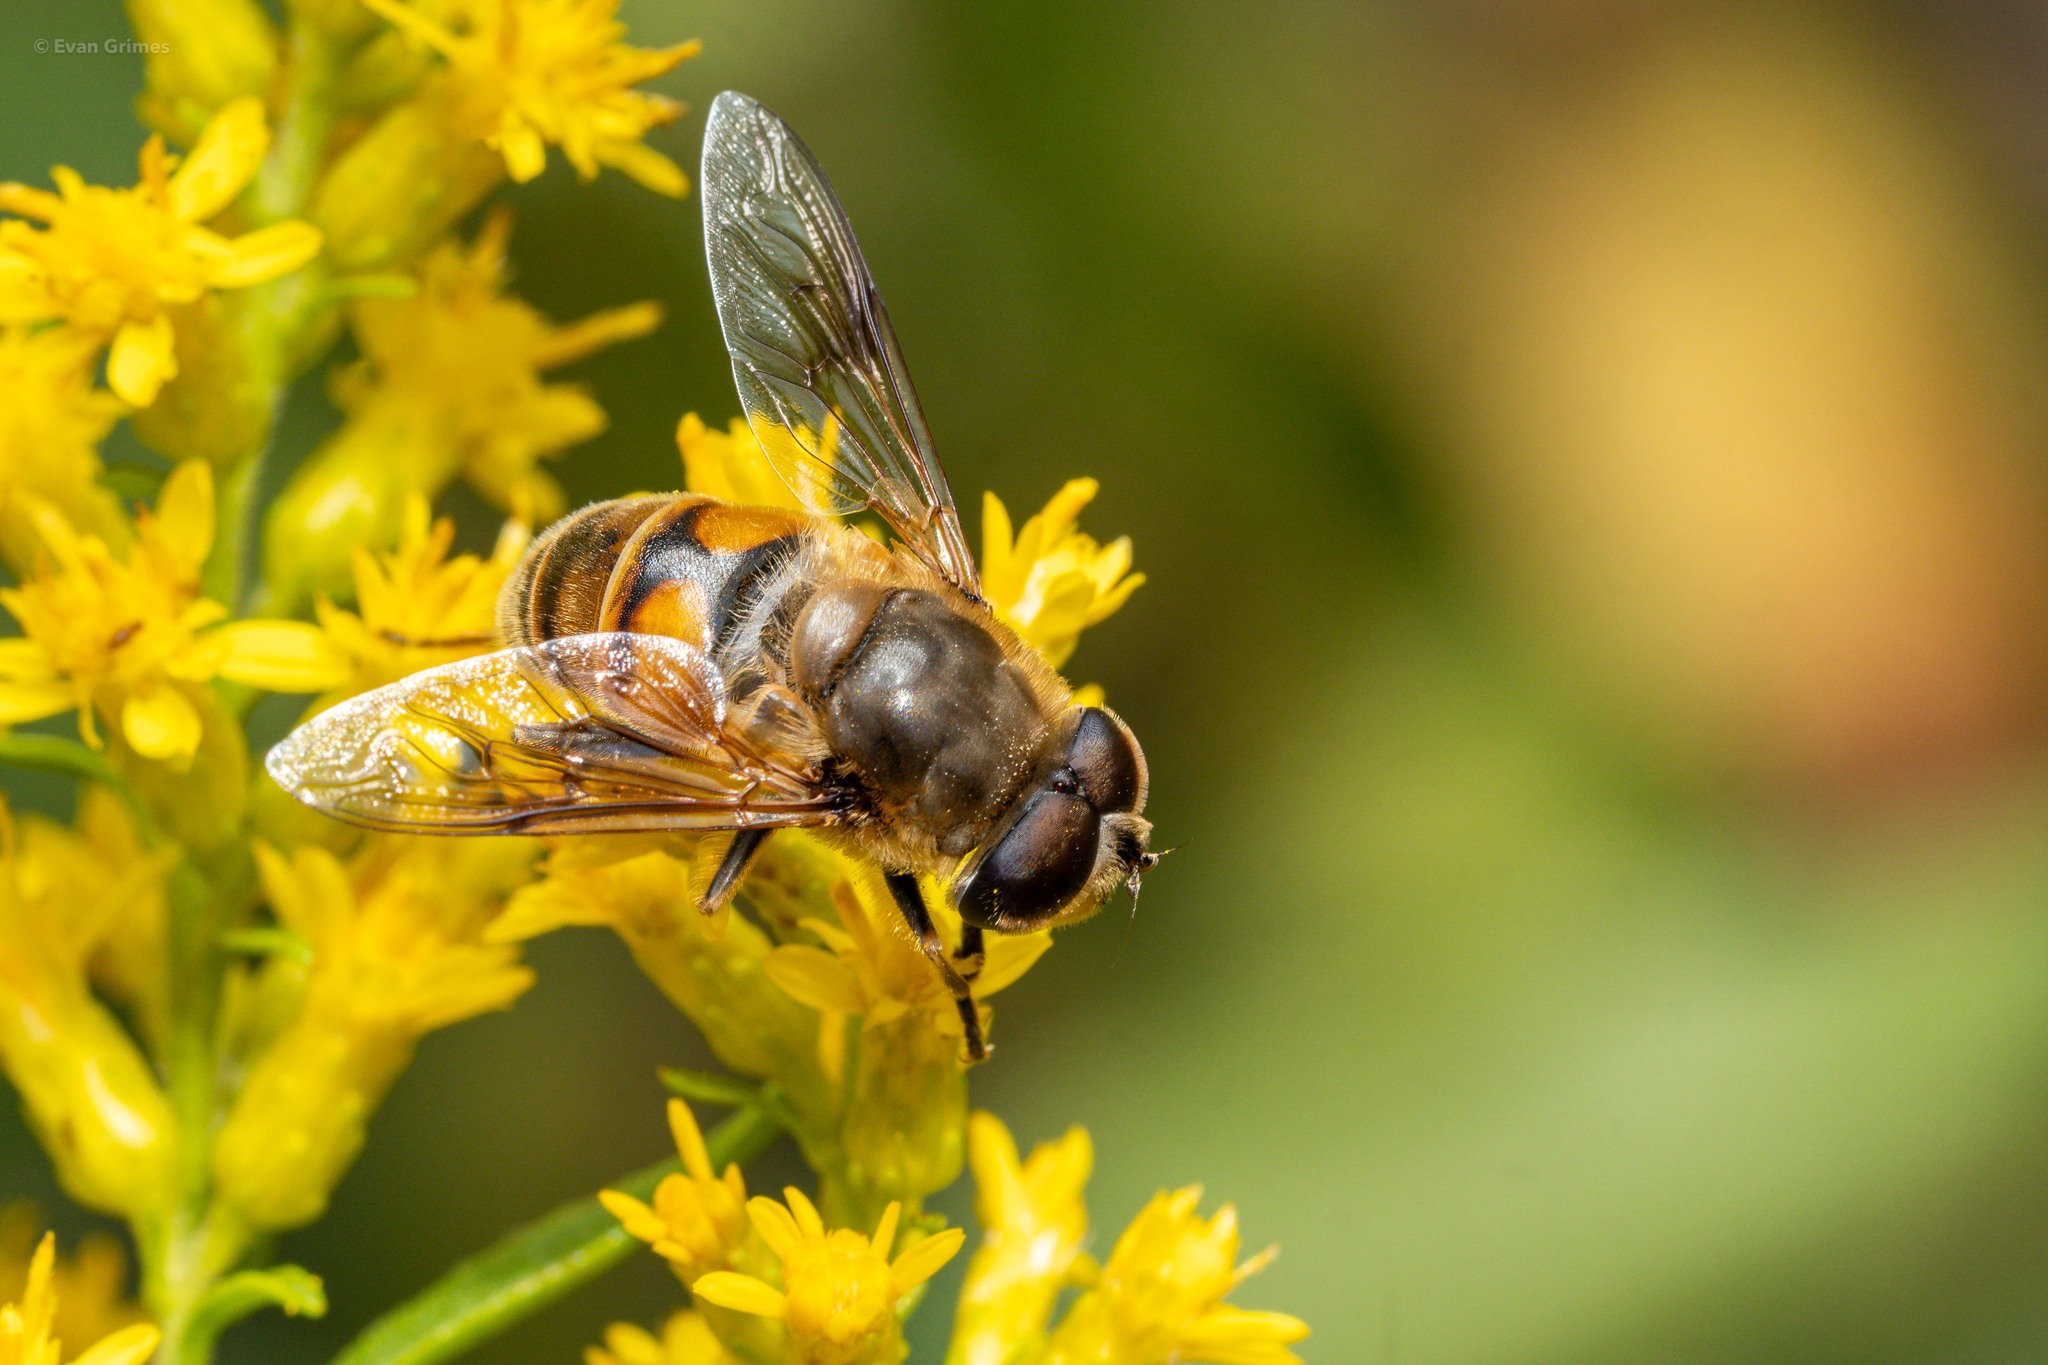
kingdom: Animalia
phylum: Arthropoda
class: Insecta
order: Diptera
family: Syrphidae
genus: Eristalis
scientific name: Eristalis tenax
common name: Drone fly
